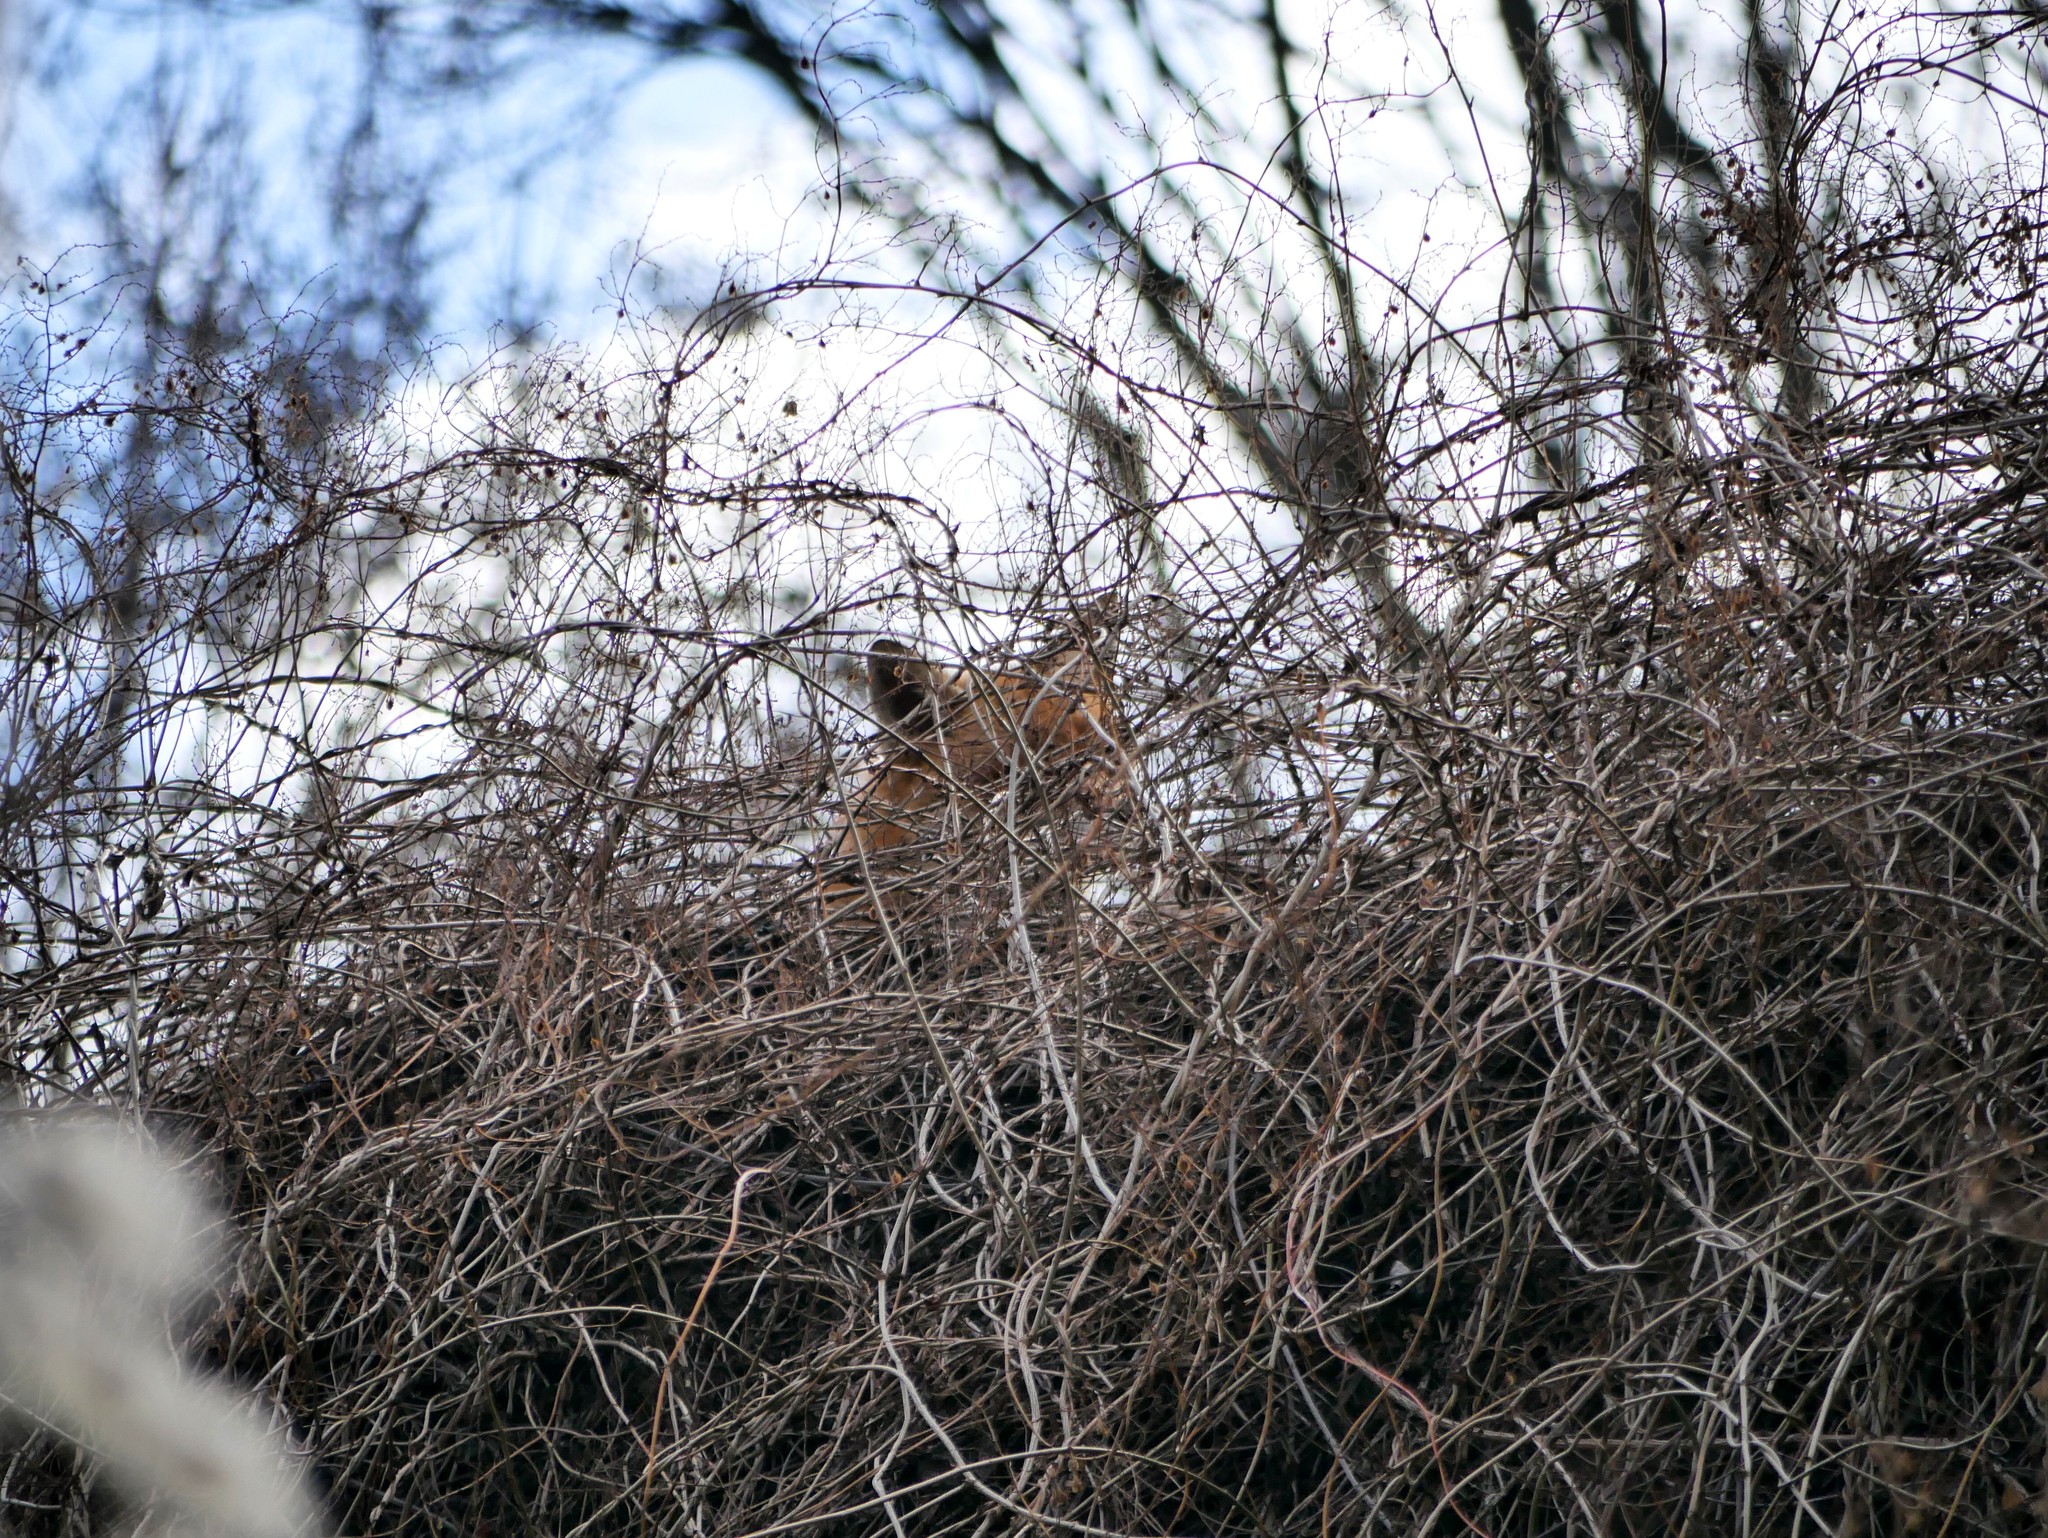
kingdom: Animalia
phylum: Chordata
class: Mammalia
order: Carnivora
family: Canidae
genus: Vulpes
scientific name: Vulpes vulpes
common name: Red fox
